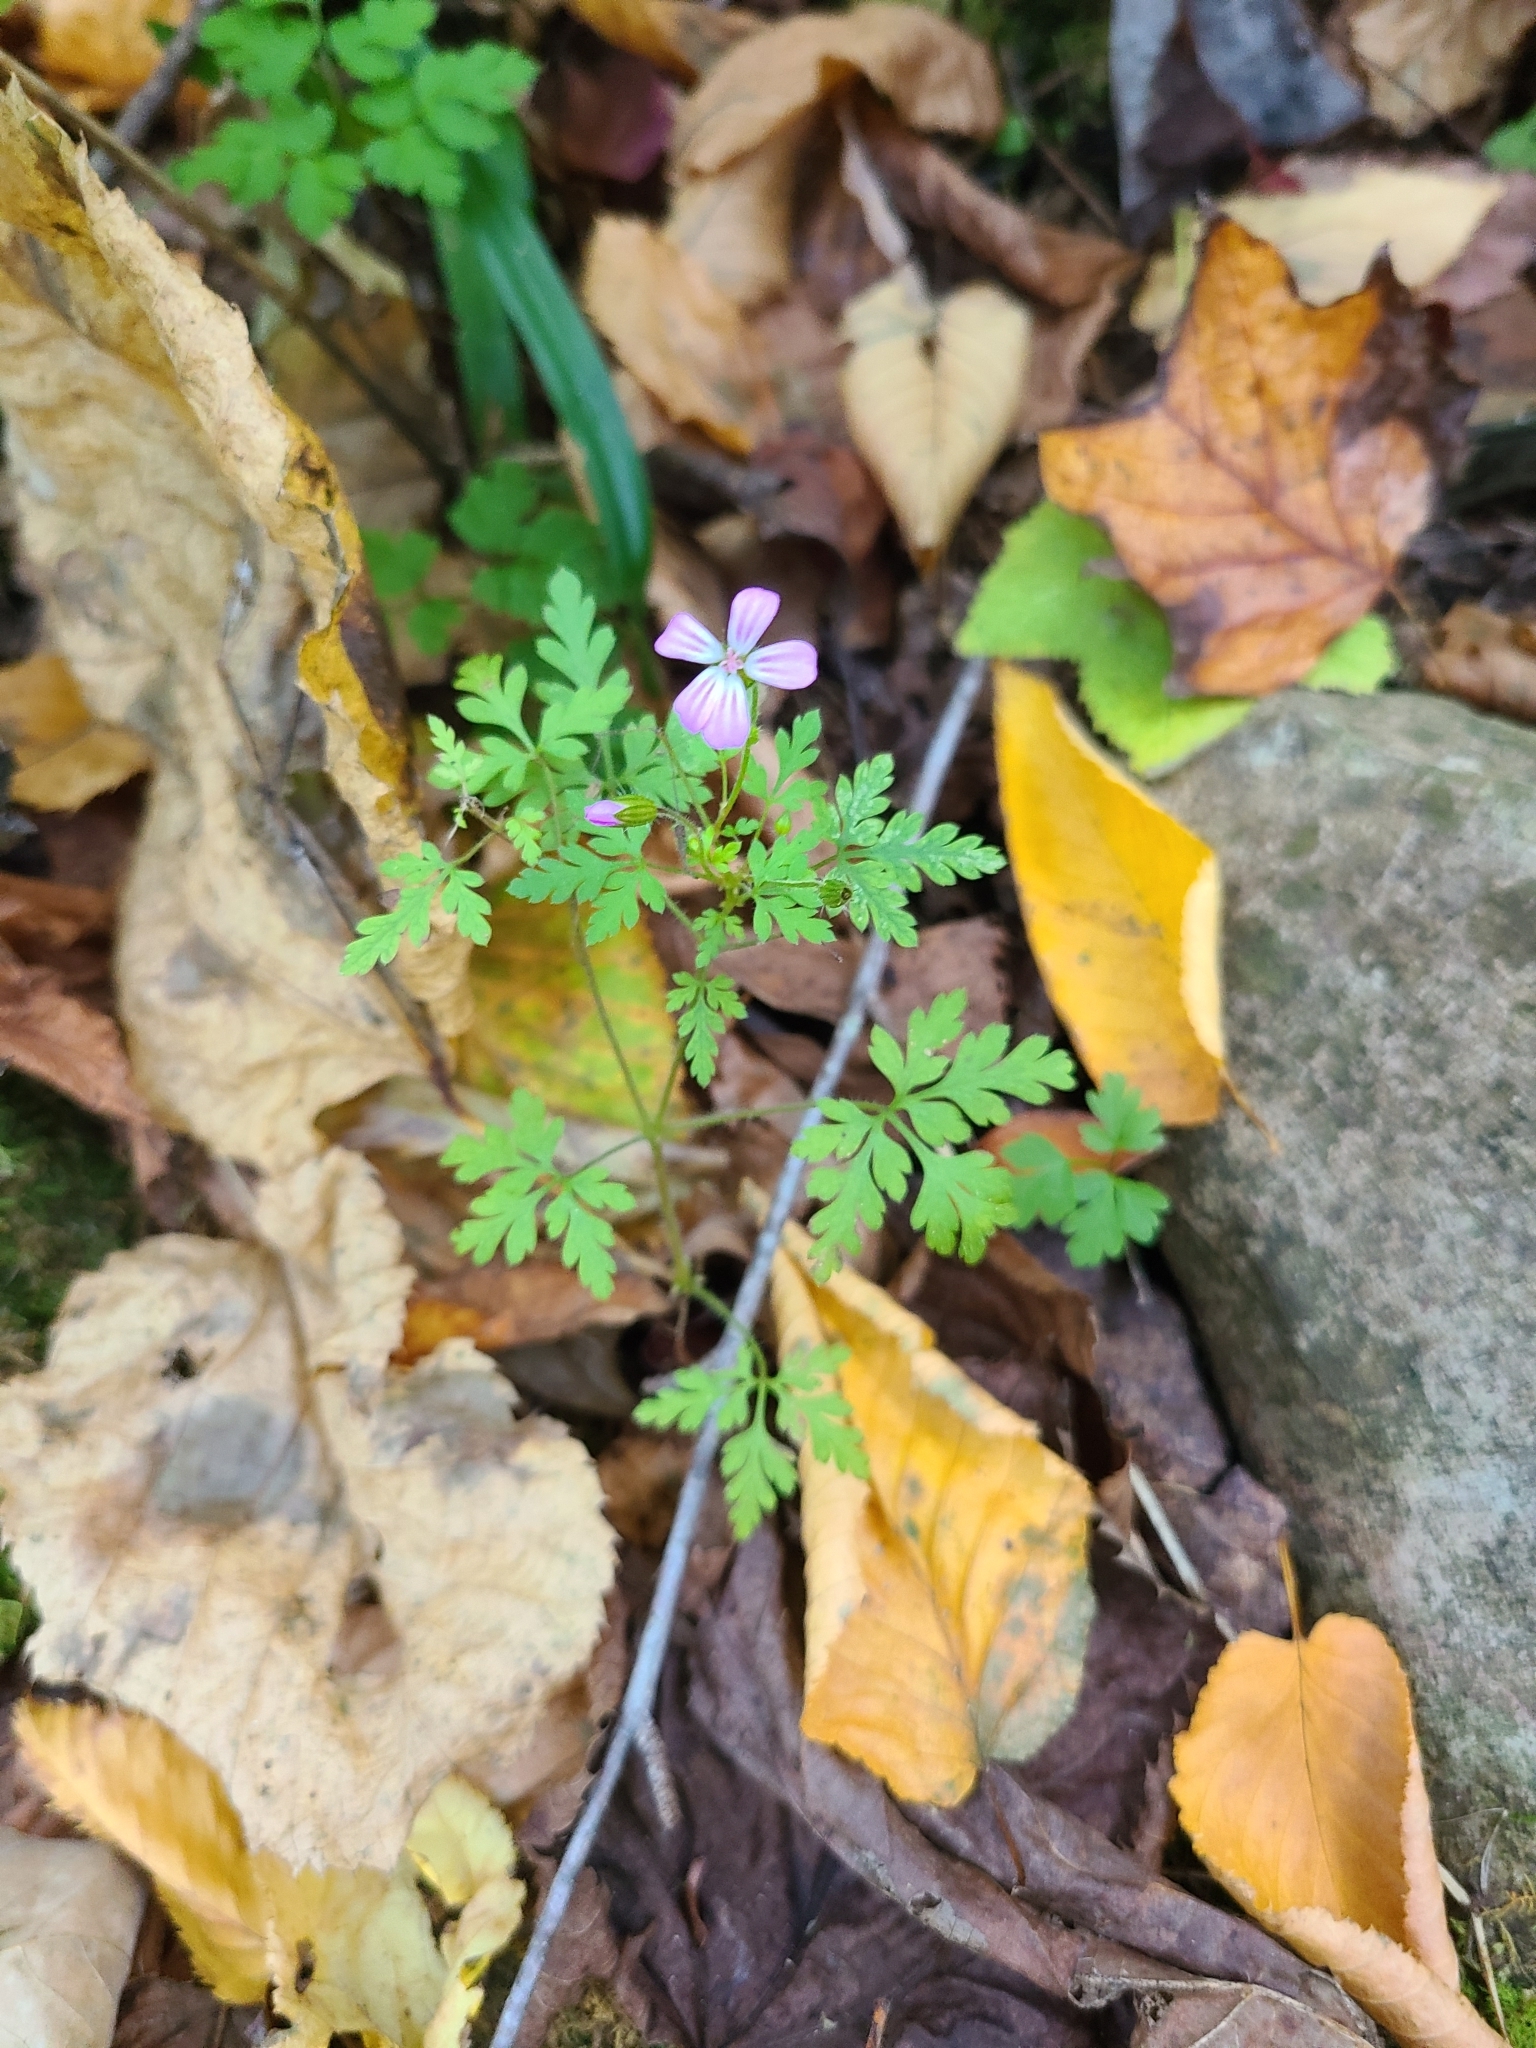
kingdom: Plantae
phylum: Tracheophyta
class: Magnoliopsida
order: Geraniales
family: Geraniaceae
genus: Geranium
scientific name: Geranium robertianum
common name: Herb-robert
